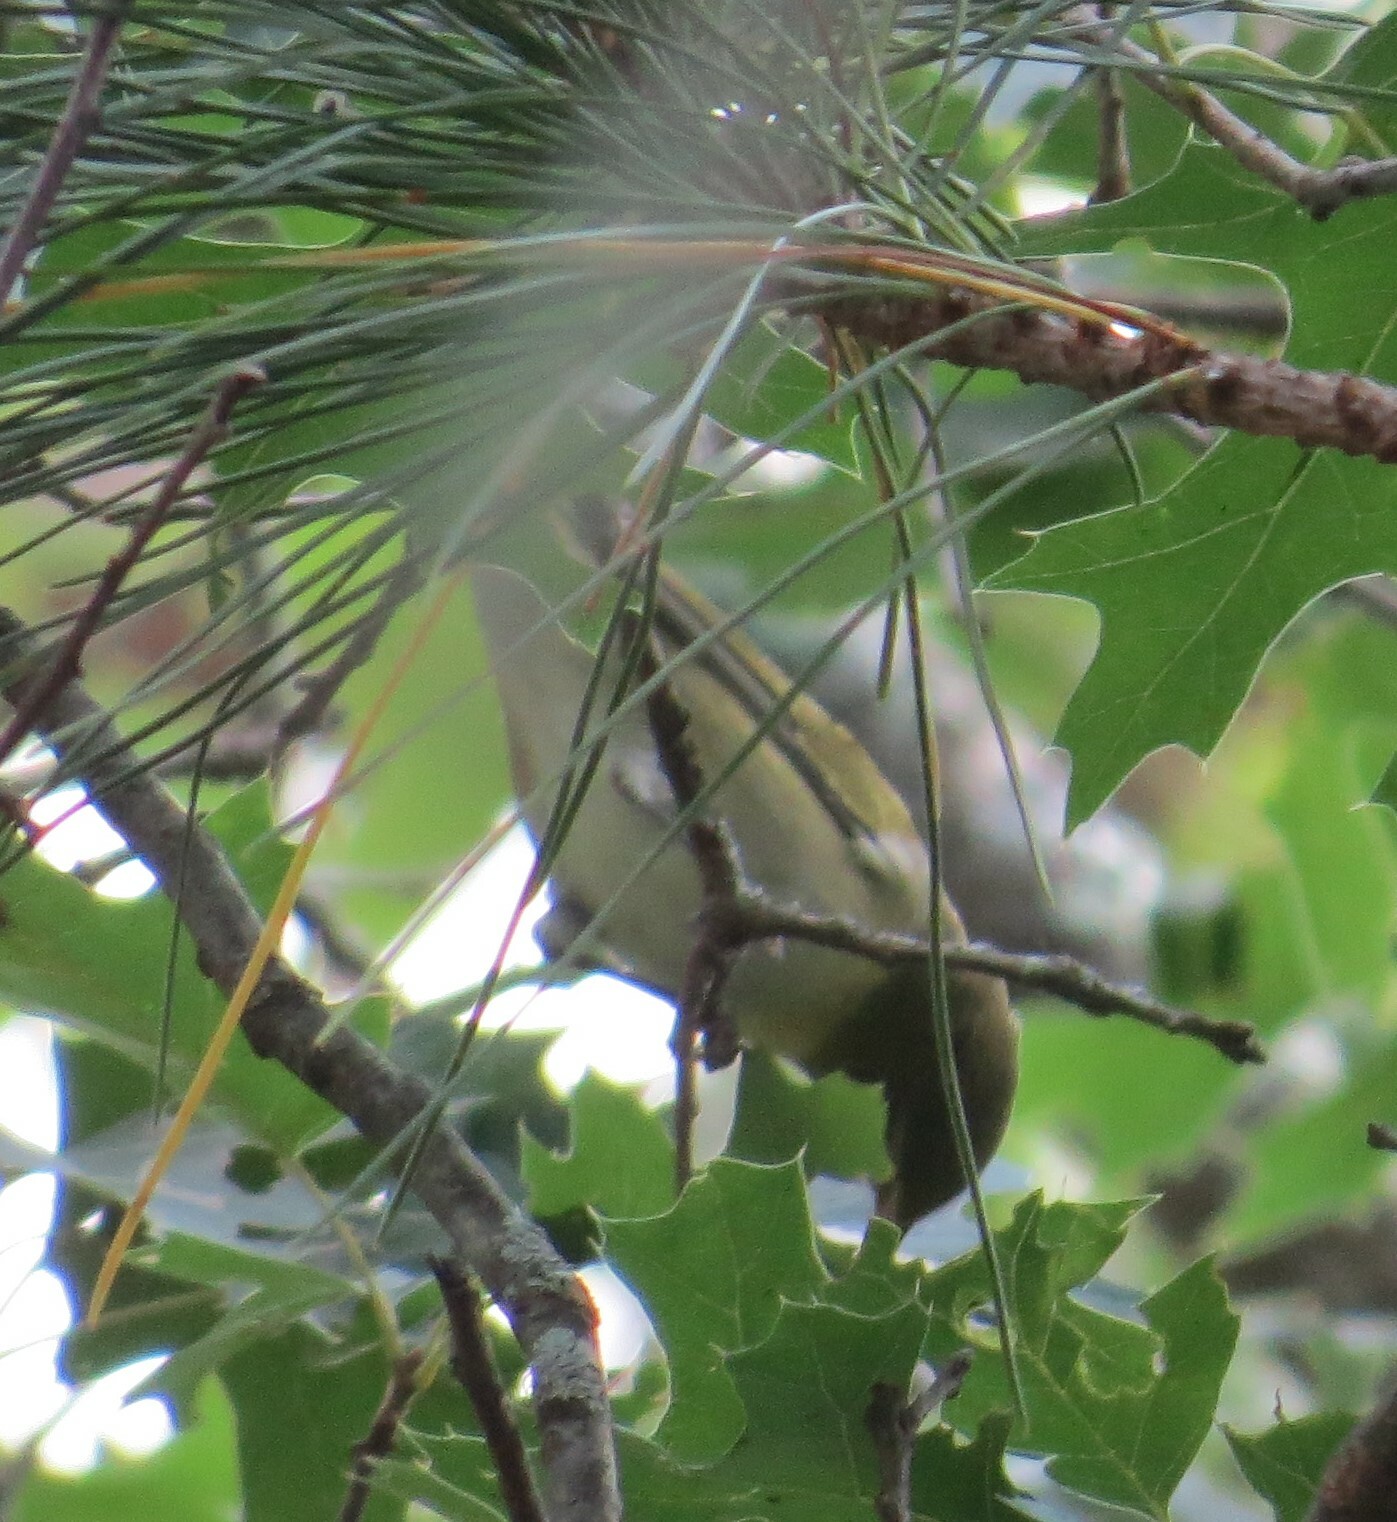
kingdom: Animalia
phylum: Chordata
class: Aves
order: Passeriformes
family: Parulidae
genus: Leiothlypis
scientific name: Leiothlypis peregrina
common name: Tennessee warbler
